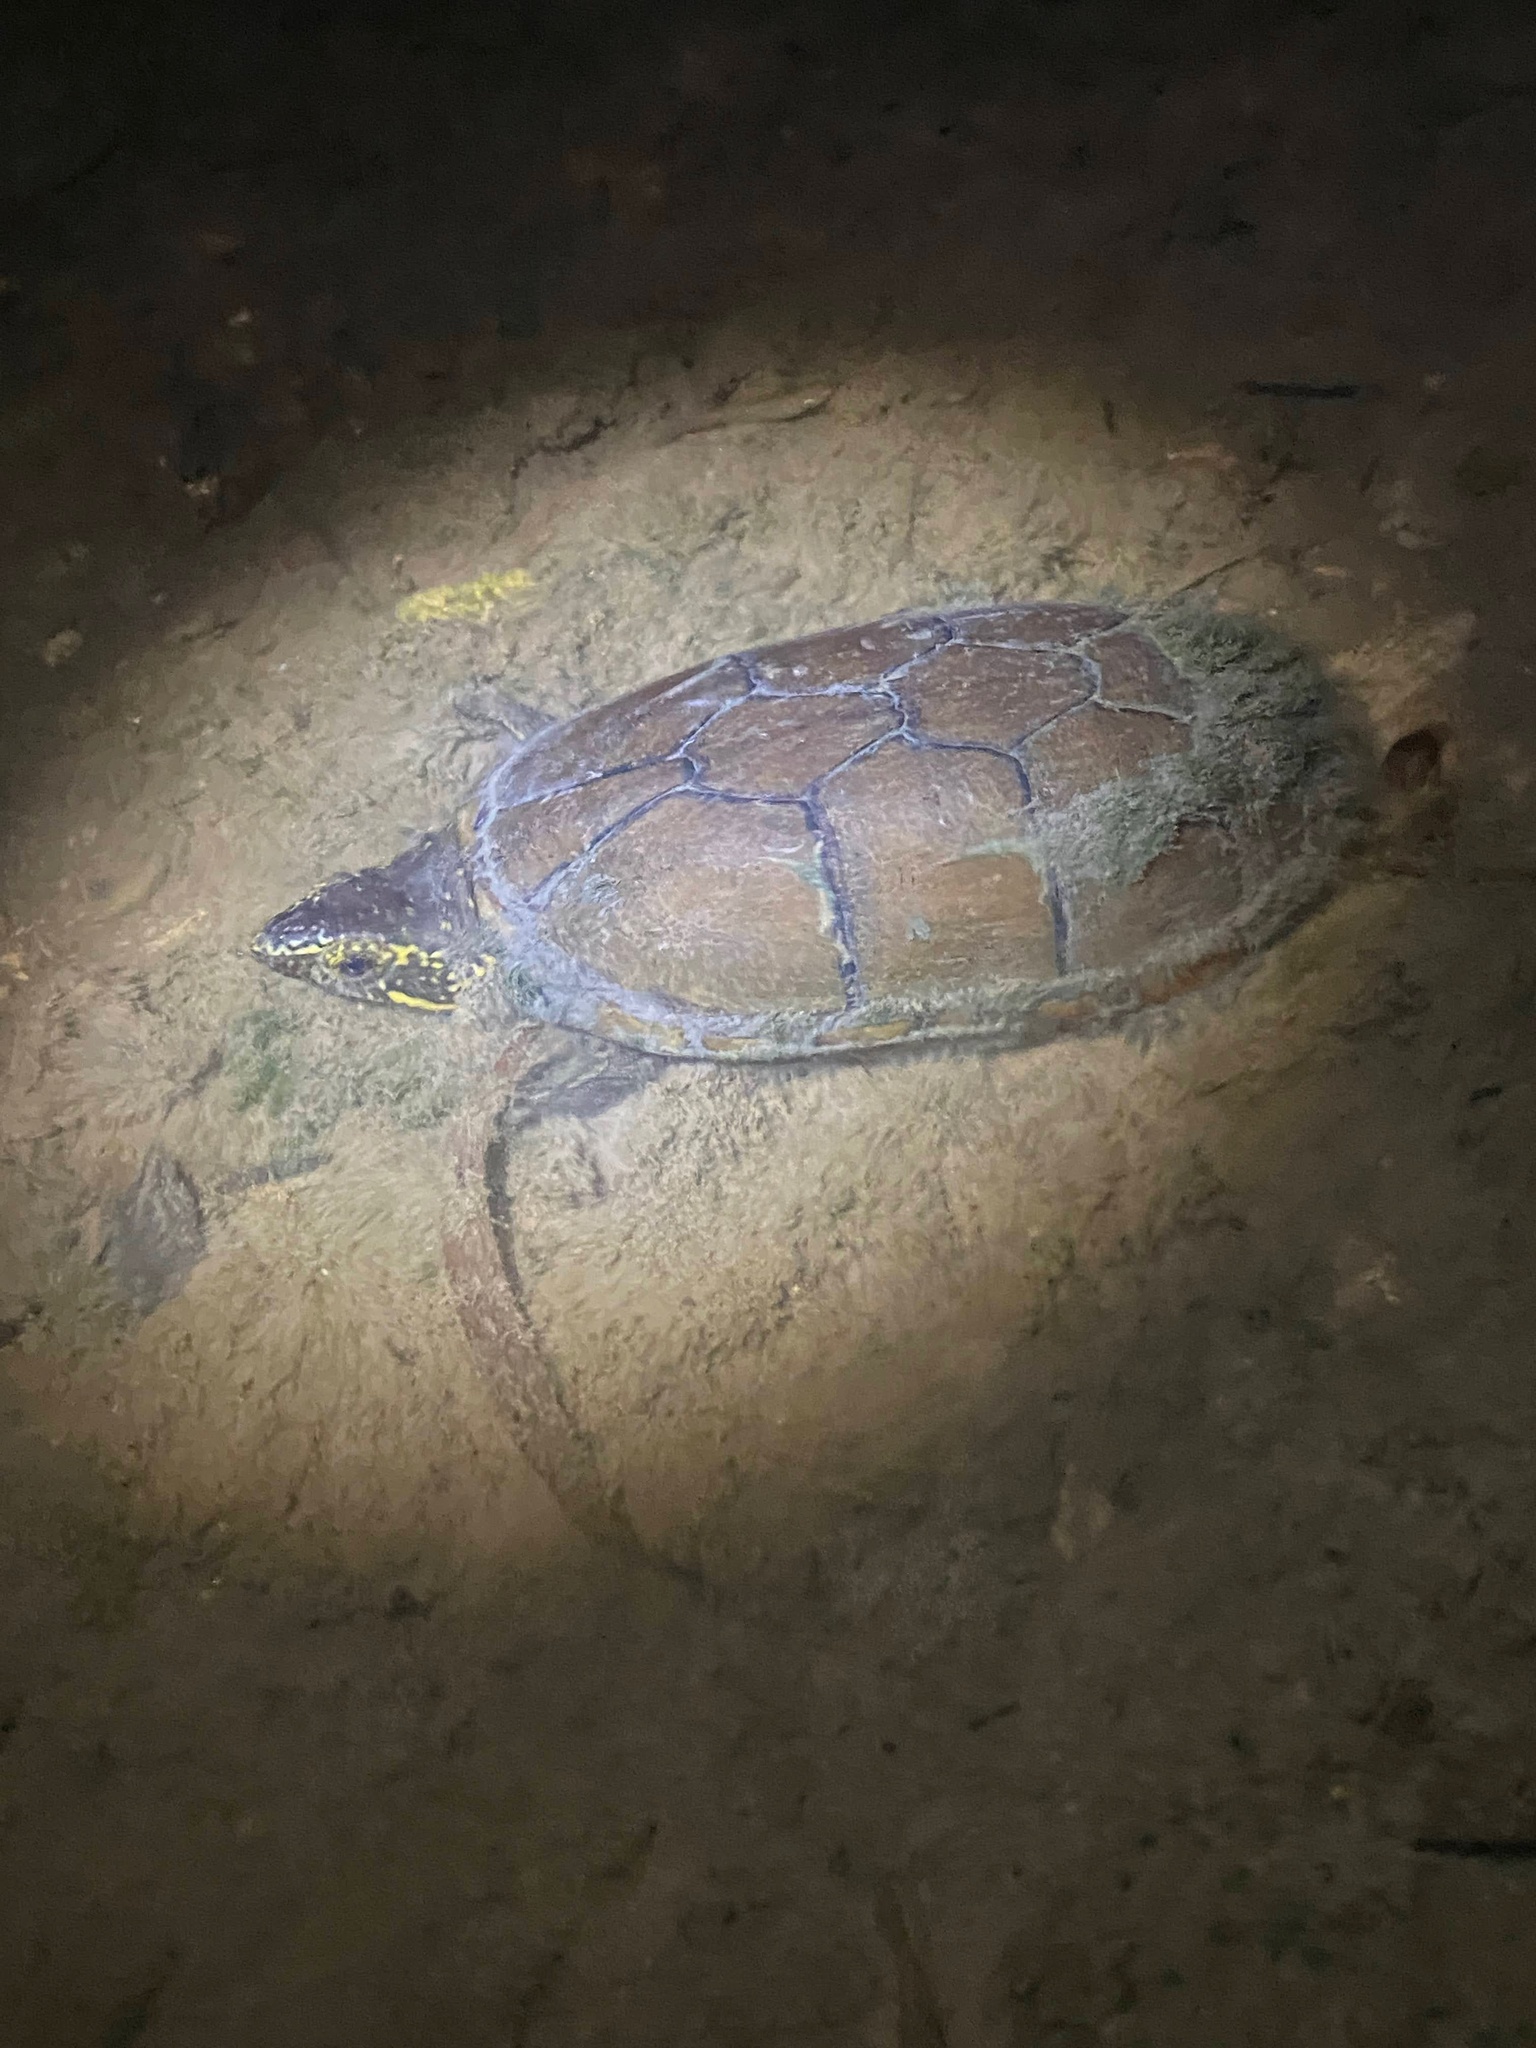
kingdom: Animalia
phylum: Chordata
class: Testudines
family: Kinosternidae
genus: Kinosternon
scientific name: Kinosternon subrubrum
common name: Eastern mud turtle
